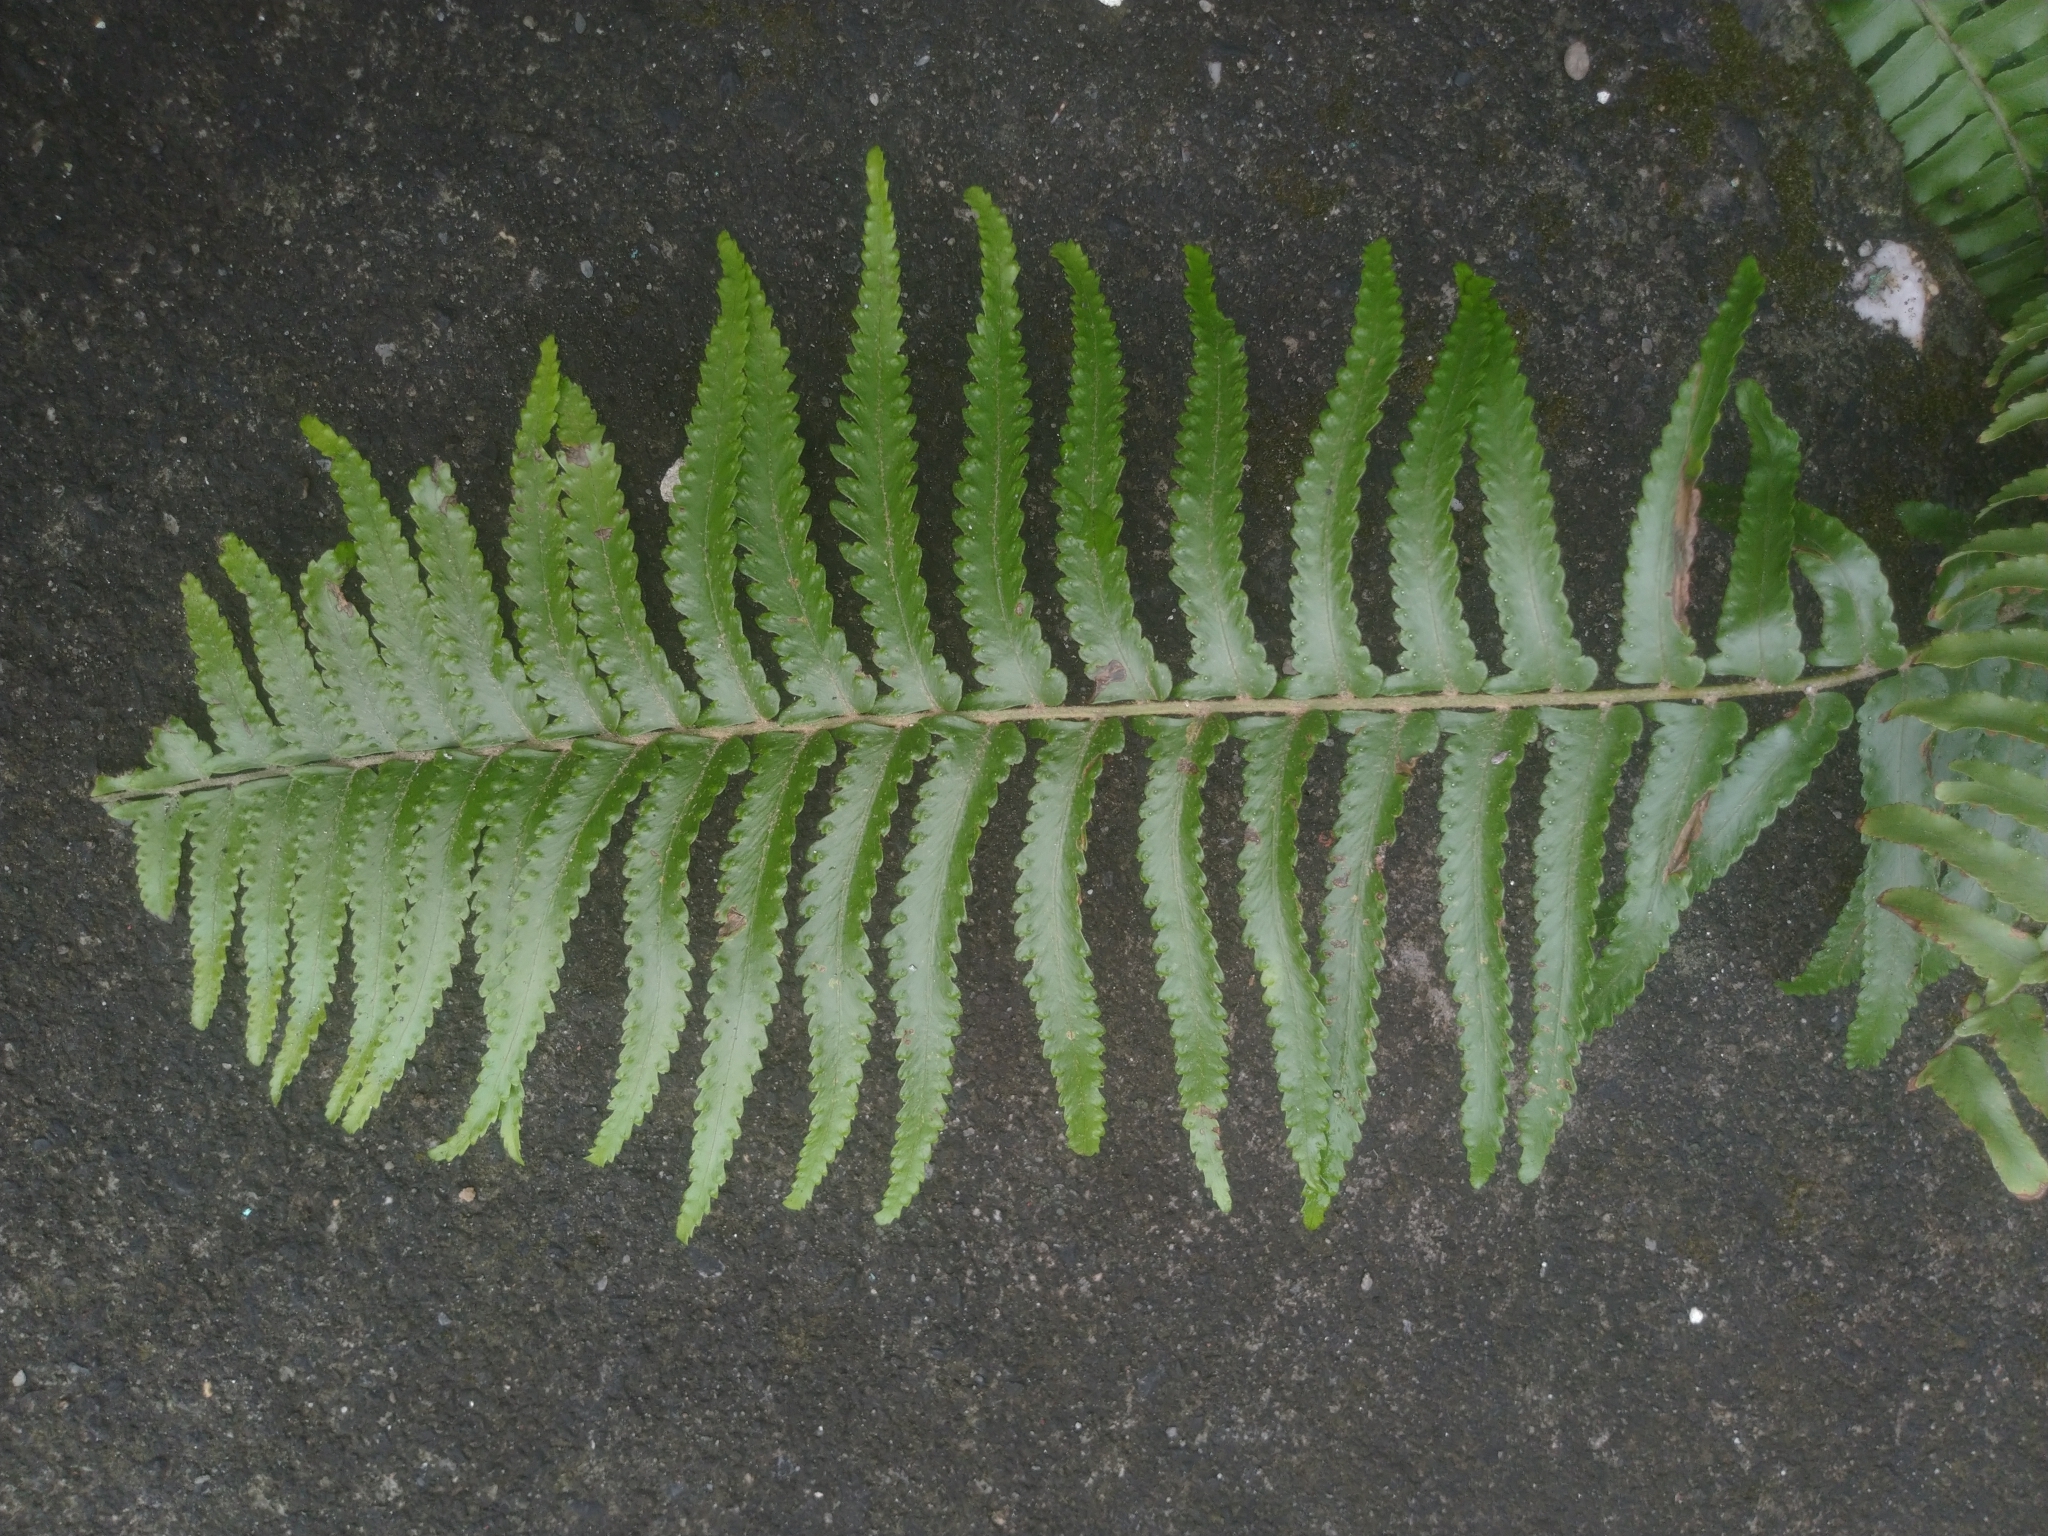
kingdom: Plantae
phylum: Tracheophyta
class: Polypodiopsida
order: Polypodiales
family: Nephrolepidaceae
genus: Nephrolepis
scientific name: Nephrolepis brownii
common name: Asian swordfern
